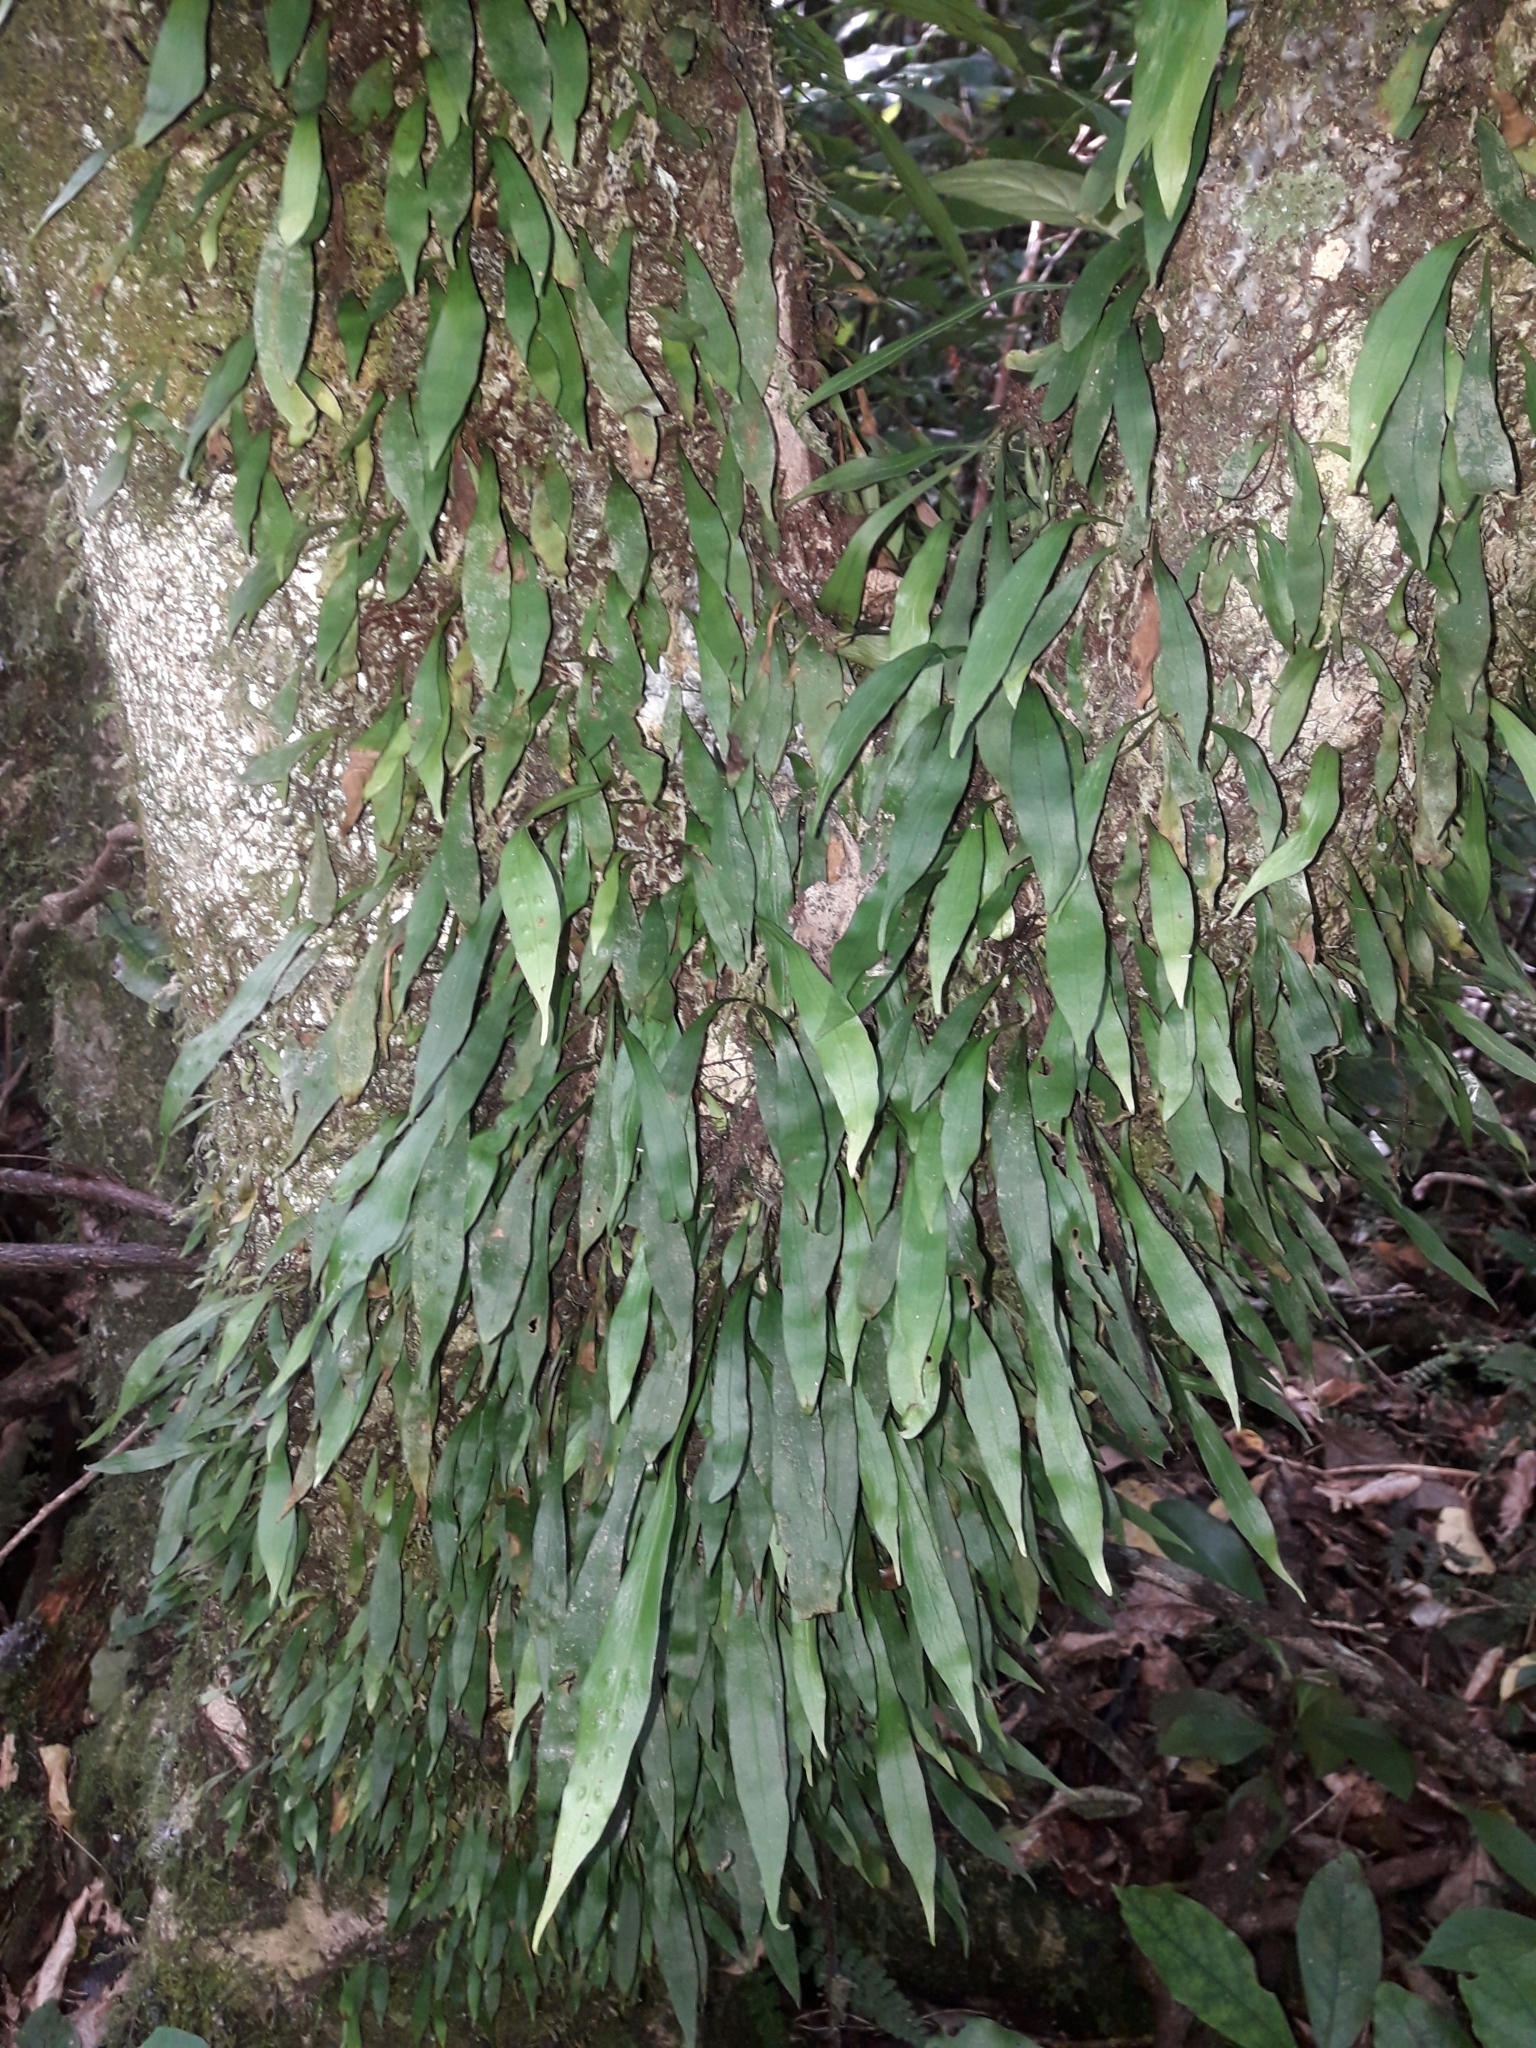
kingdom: Plantae
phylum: Tracheophyta
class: Polypodiopsida
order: Polypodiales
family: Polypodiaceae
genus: Loxogramme
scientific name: Loxogramme dictyopteris
